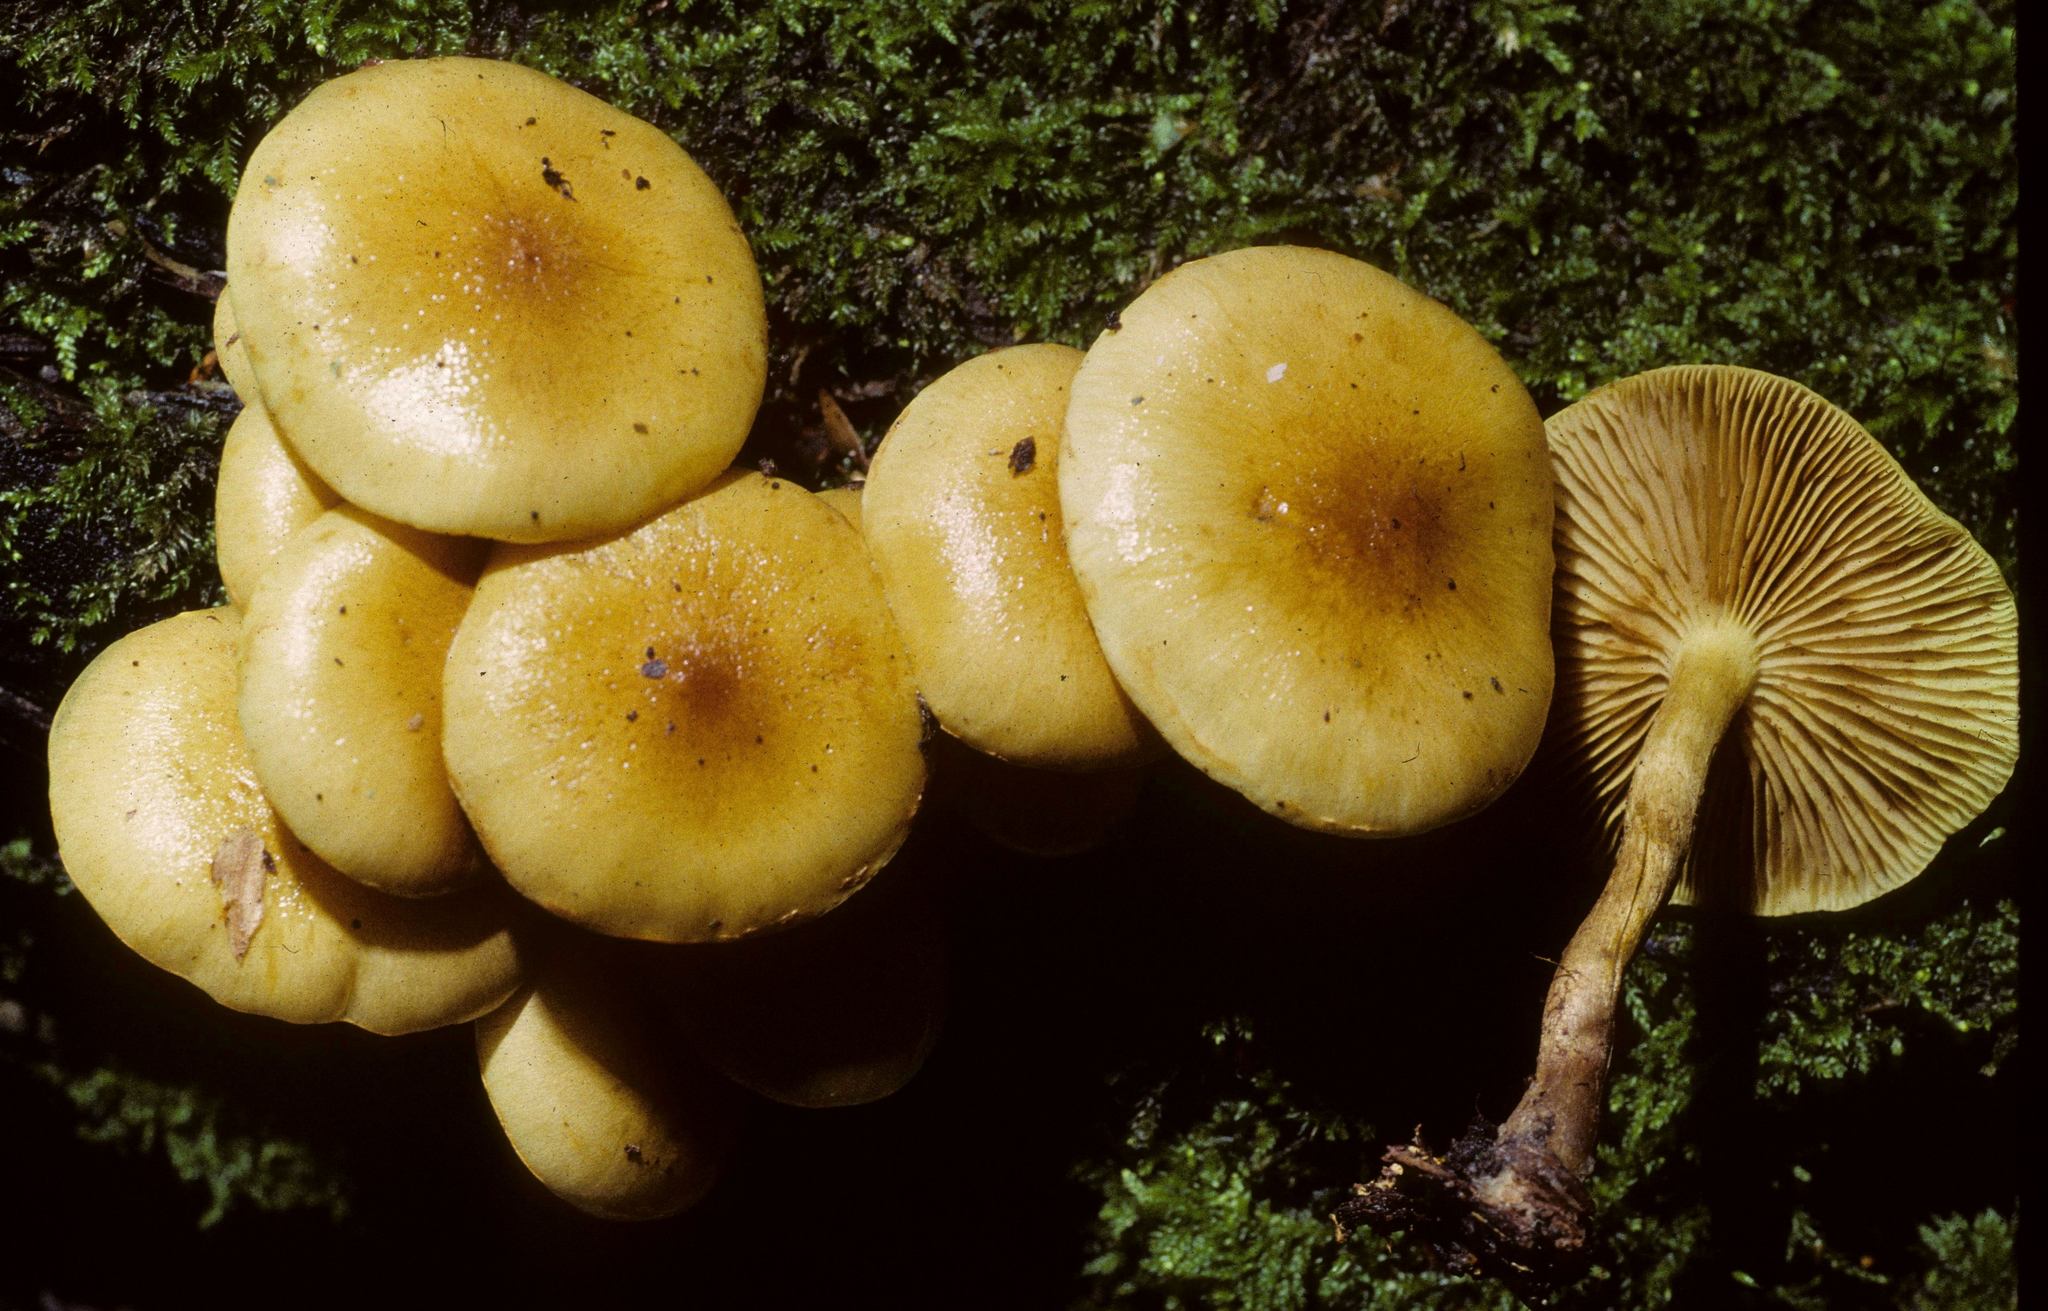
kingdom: Fungi
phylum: Basidiomycota
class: Agaricomycetes
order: Agaricales
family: Hymenogastraceae
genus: Flammula
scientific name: Flammula alnicola
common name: Alder scalycap
